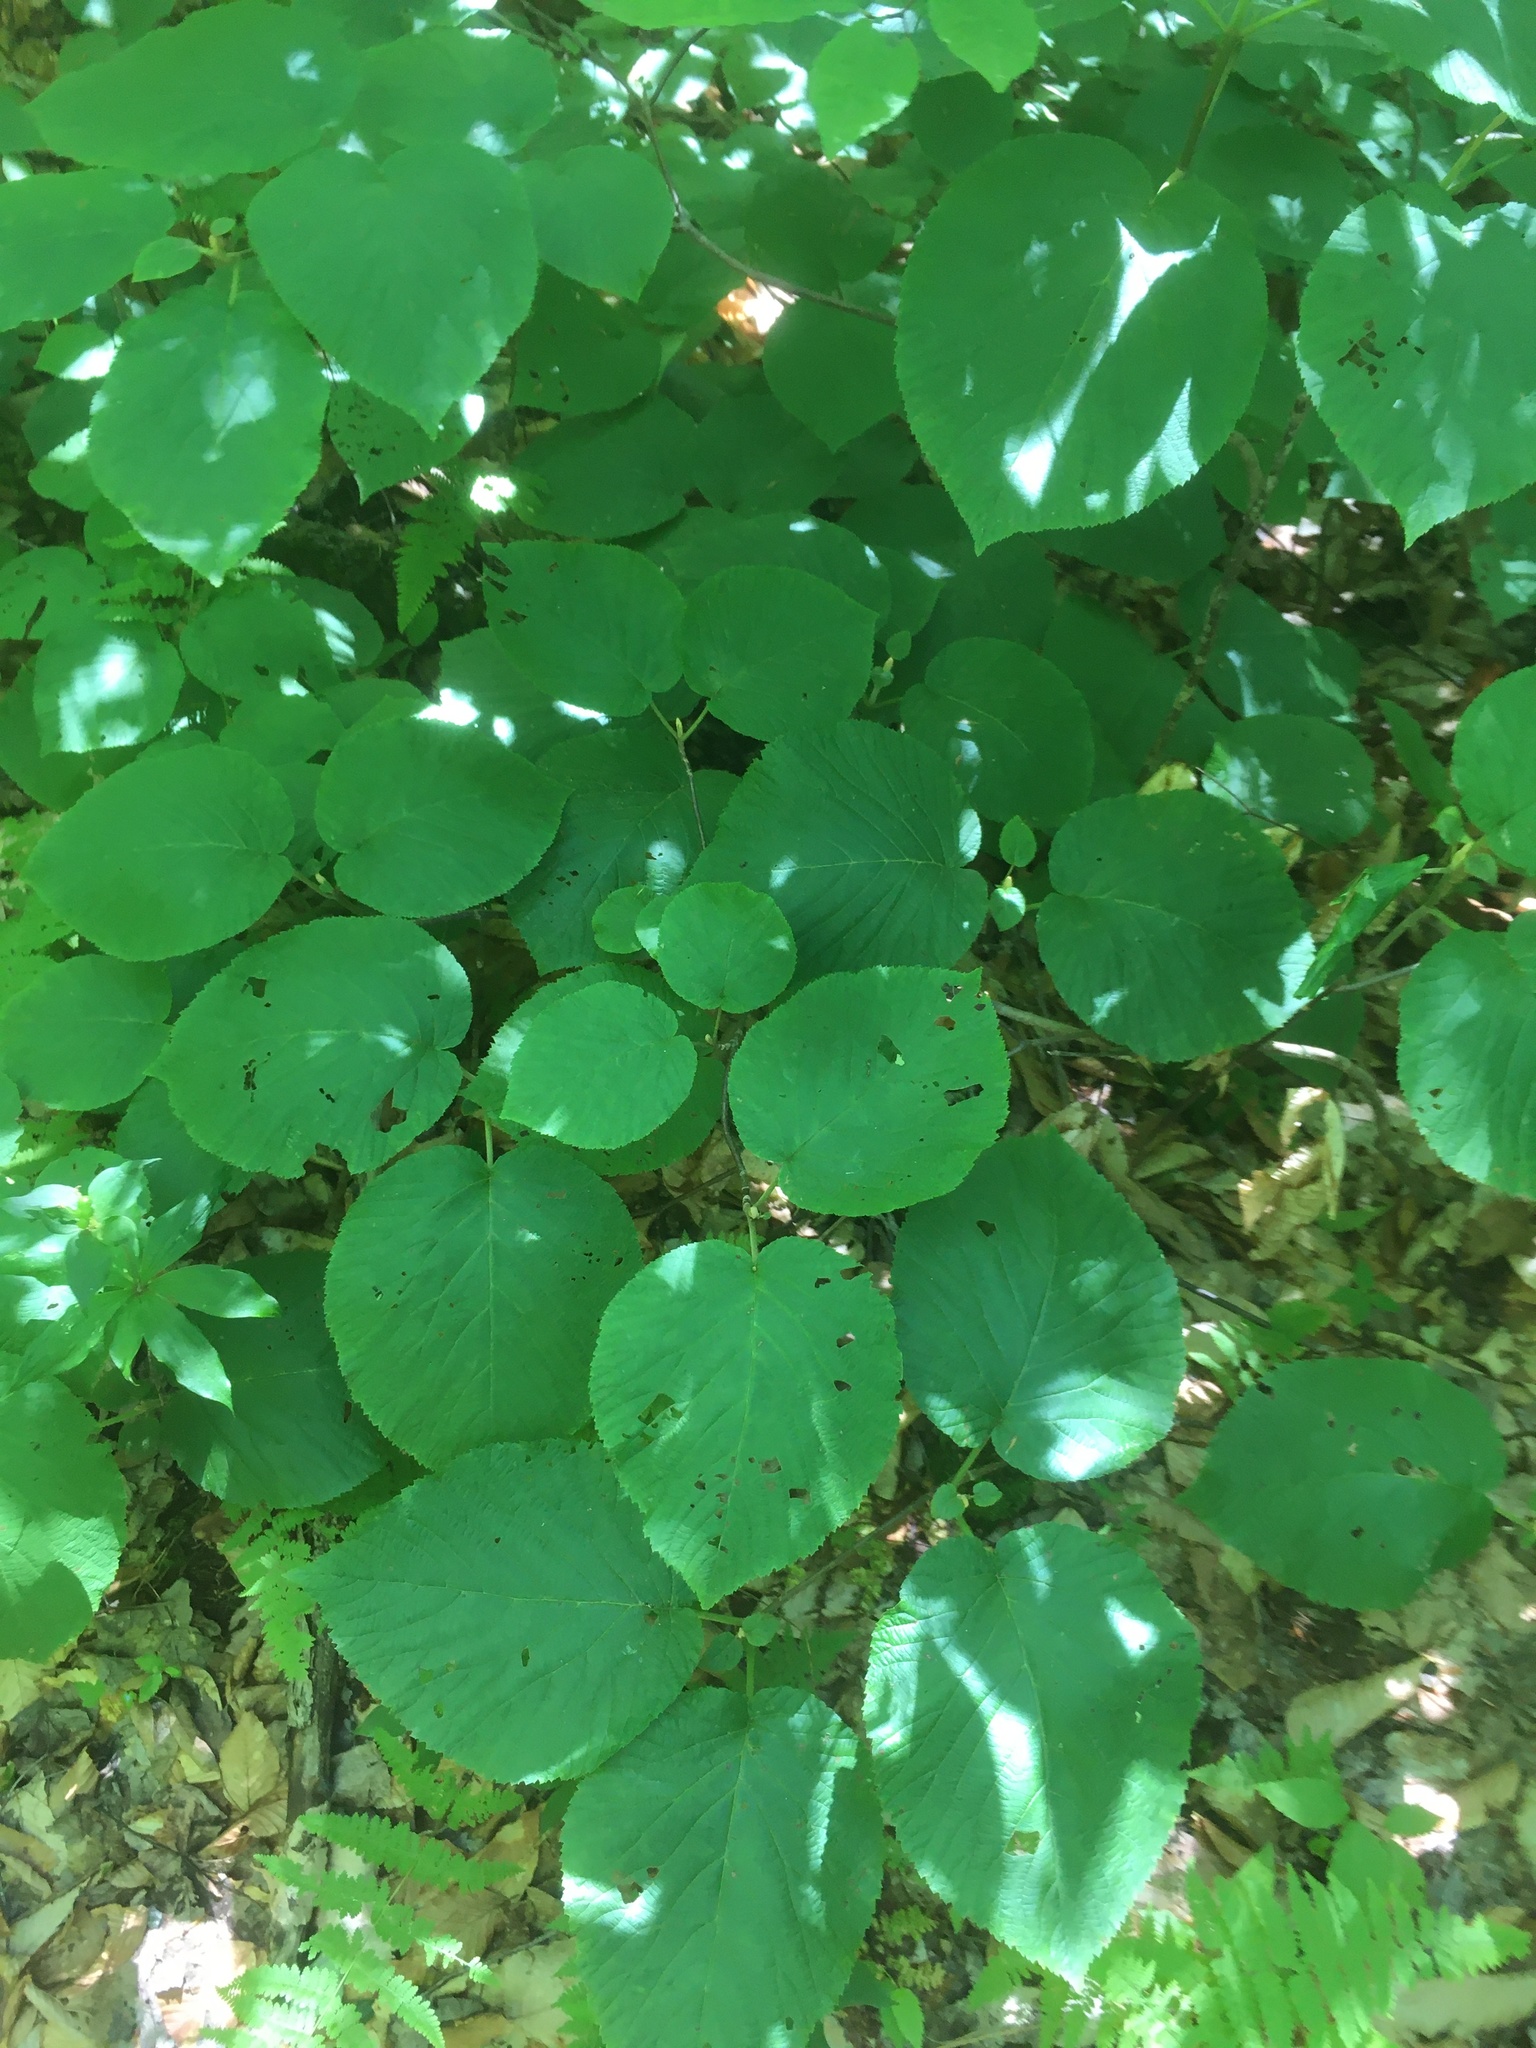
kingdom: Plantae
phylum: Tracheophyta
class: Magnoliopsida
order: Dipsacales
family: Viburnaceae
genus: Viburnum
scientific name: Viburnum lantanoides
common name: Hobblebush
